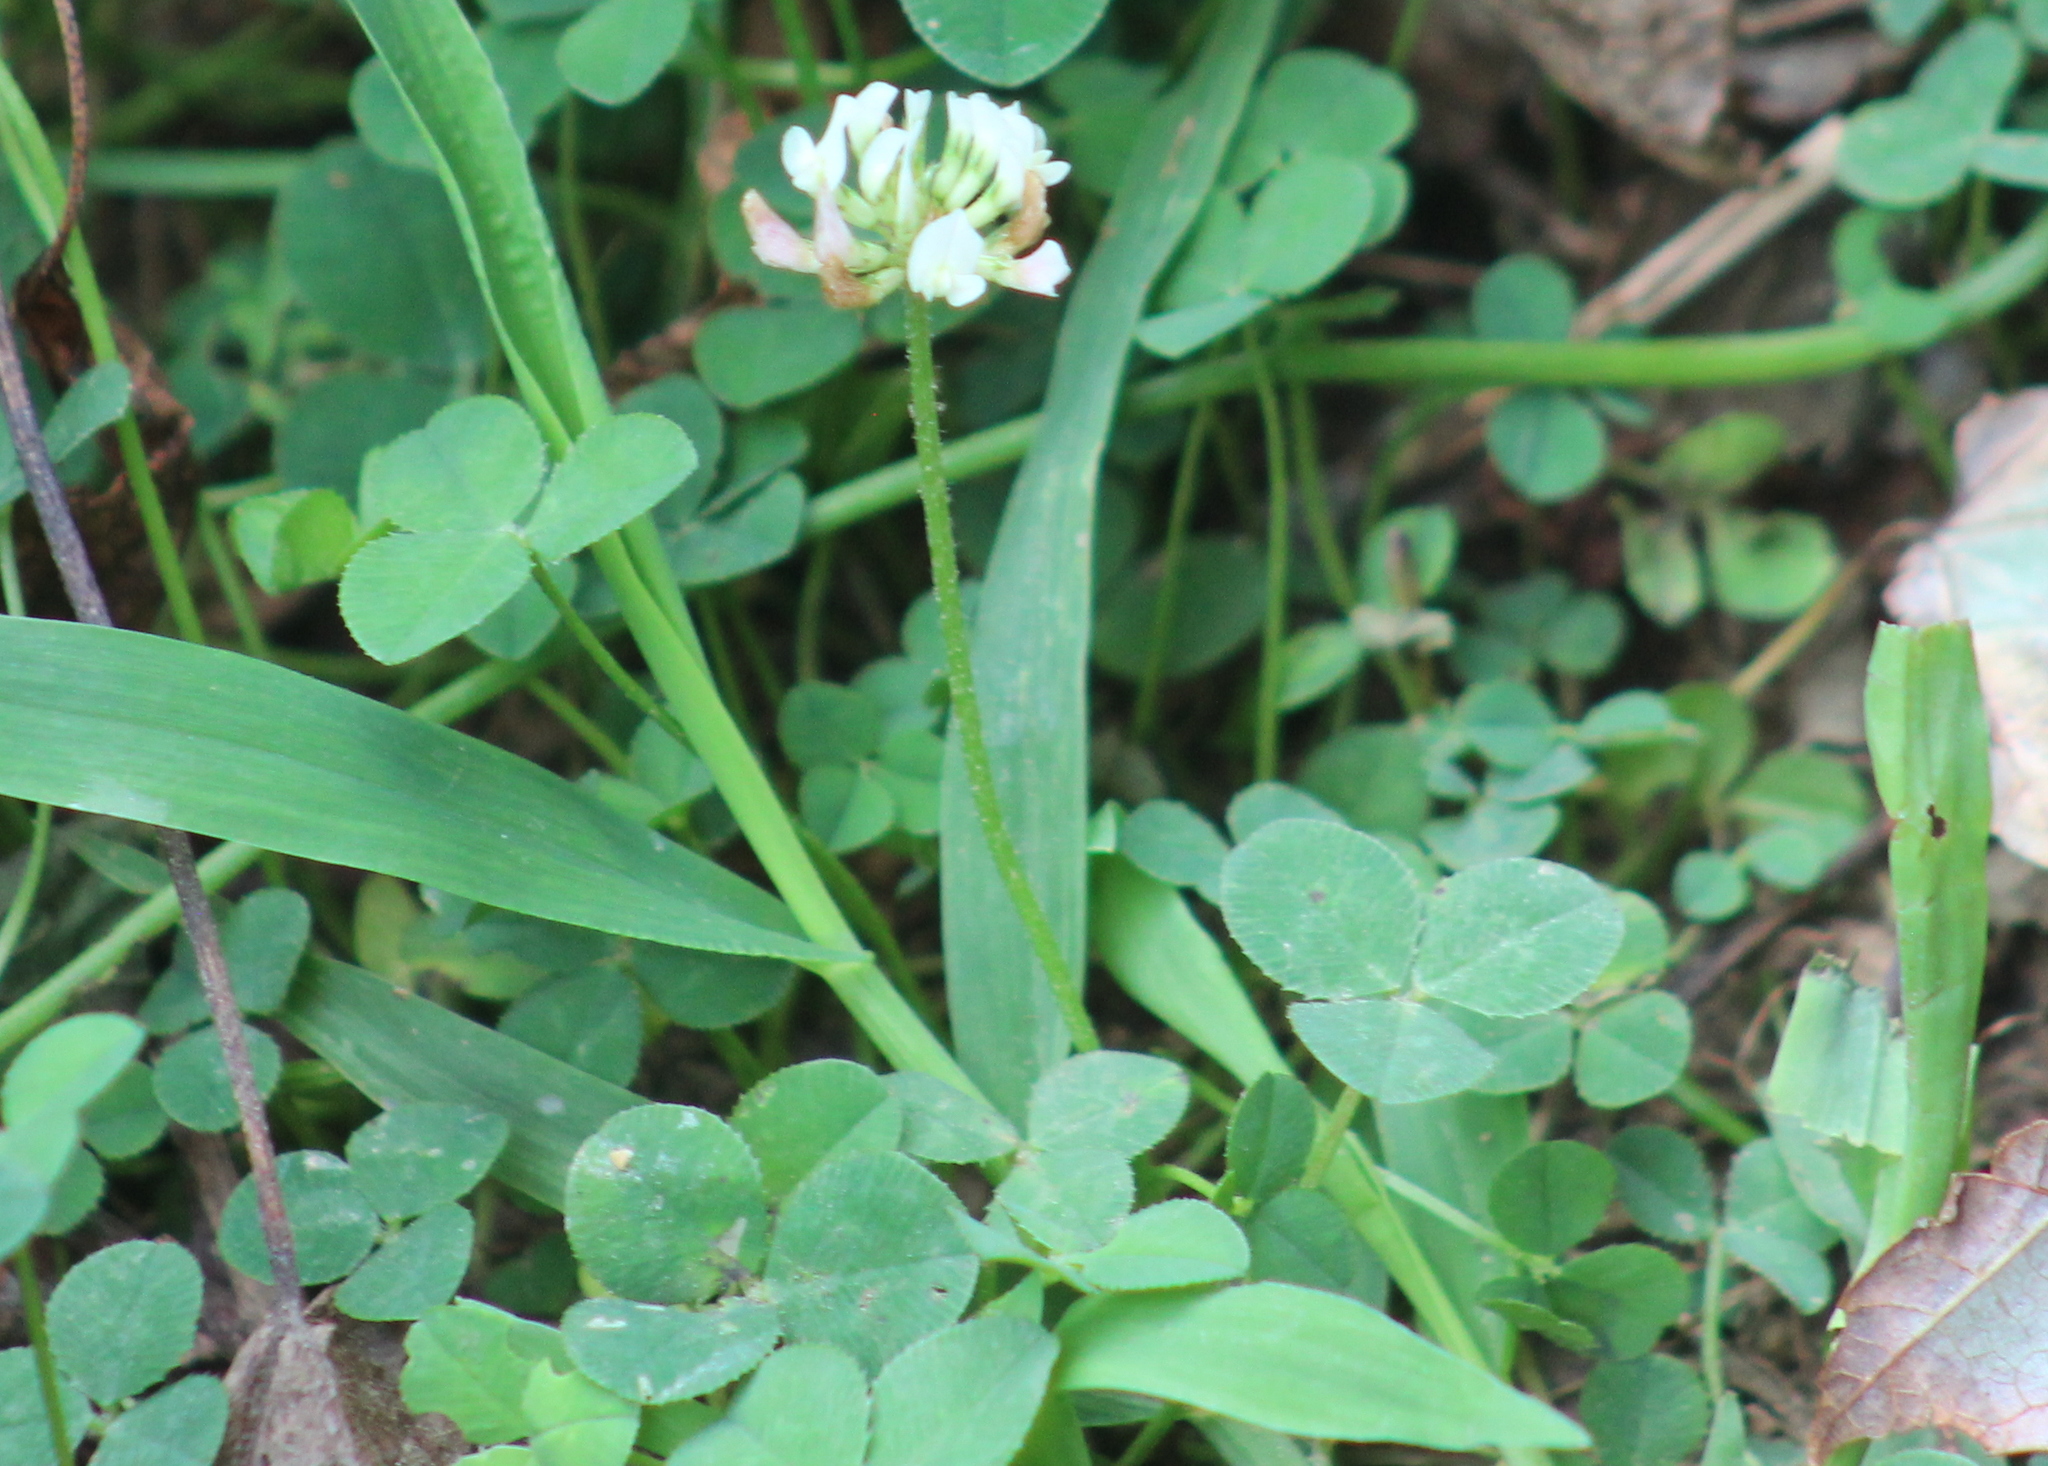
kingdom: Plantae
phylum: Tracheophyta
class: Magnoliopsida
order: Fabales
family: Fabaceae
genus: Trifolium
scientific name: Trifolium repens
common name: White clover
